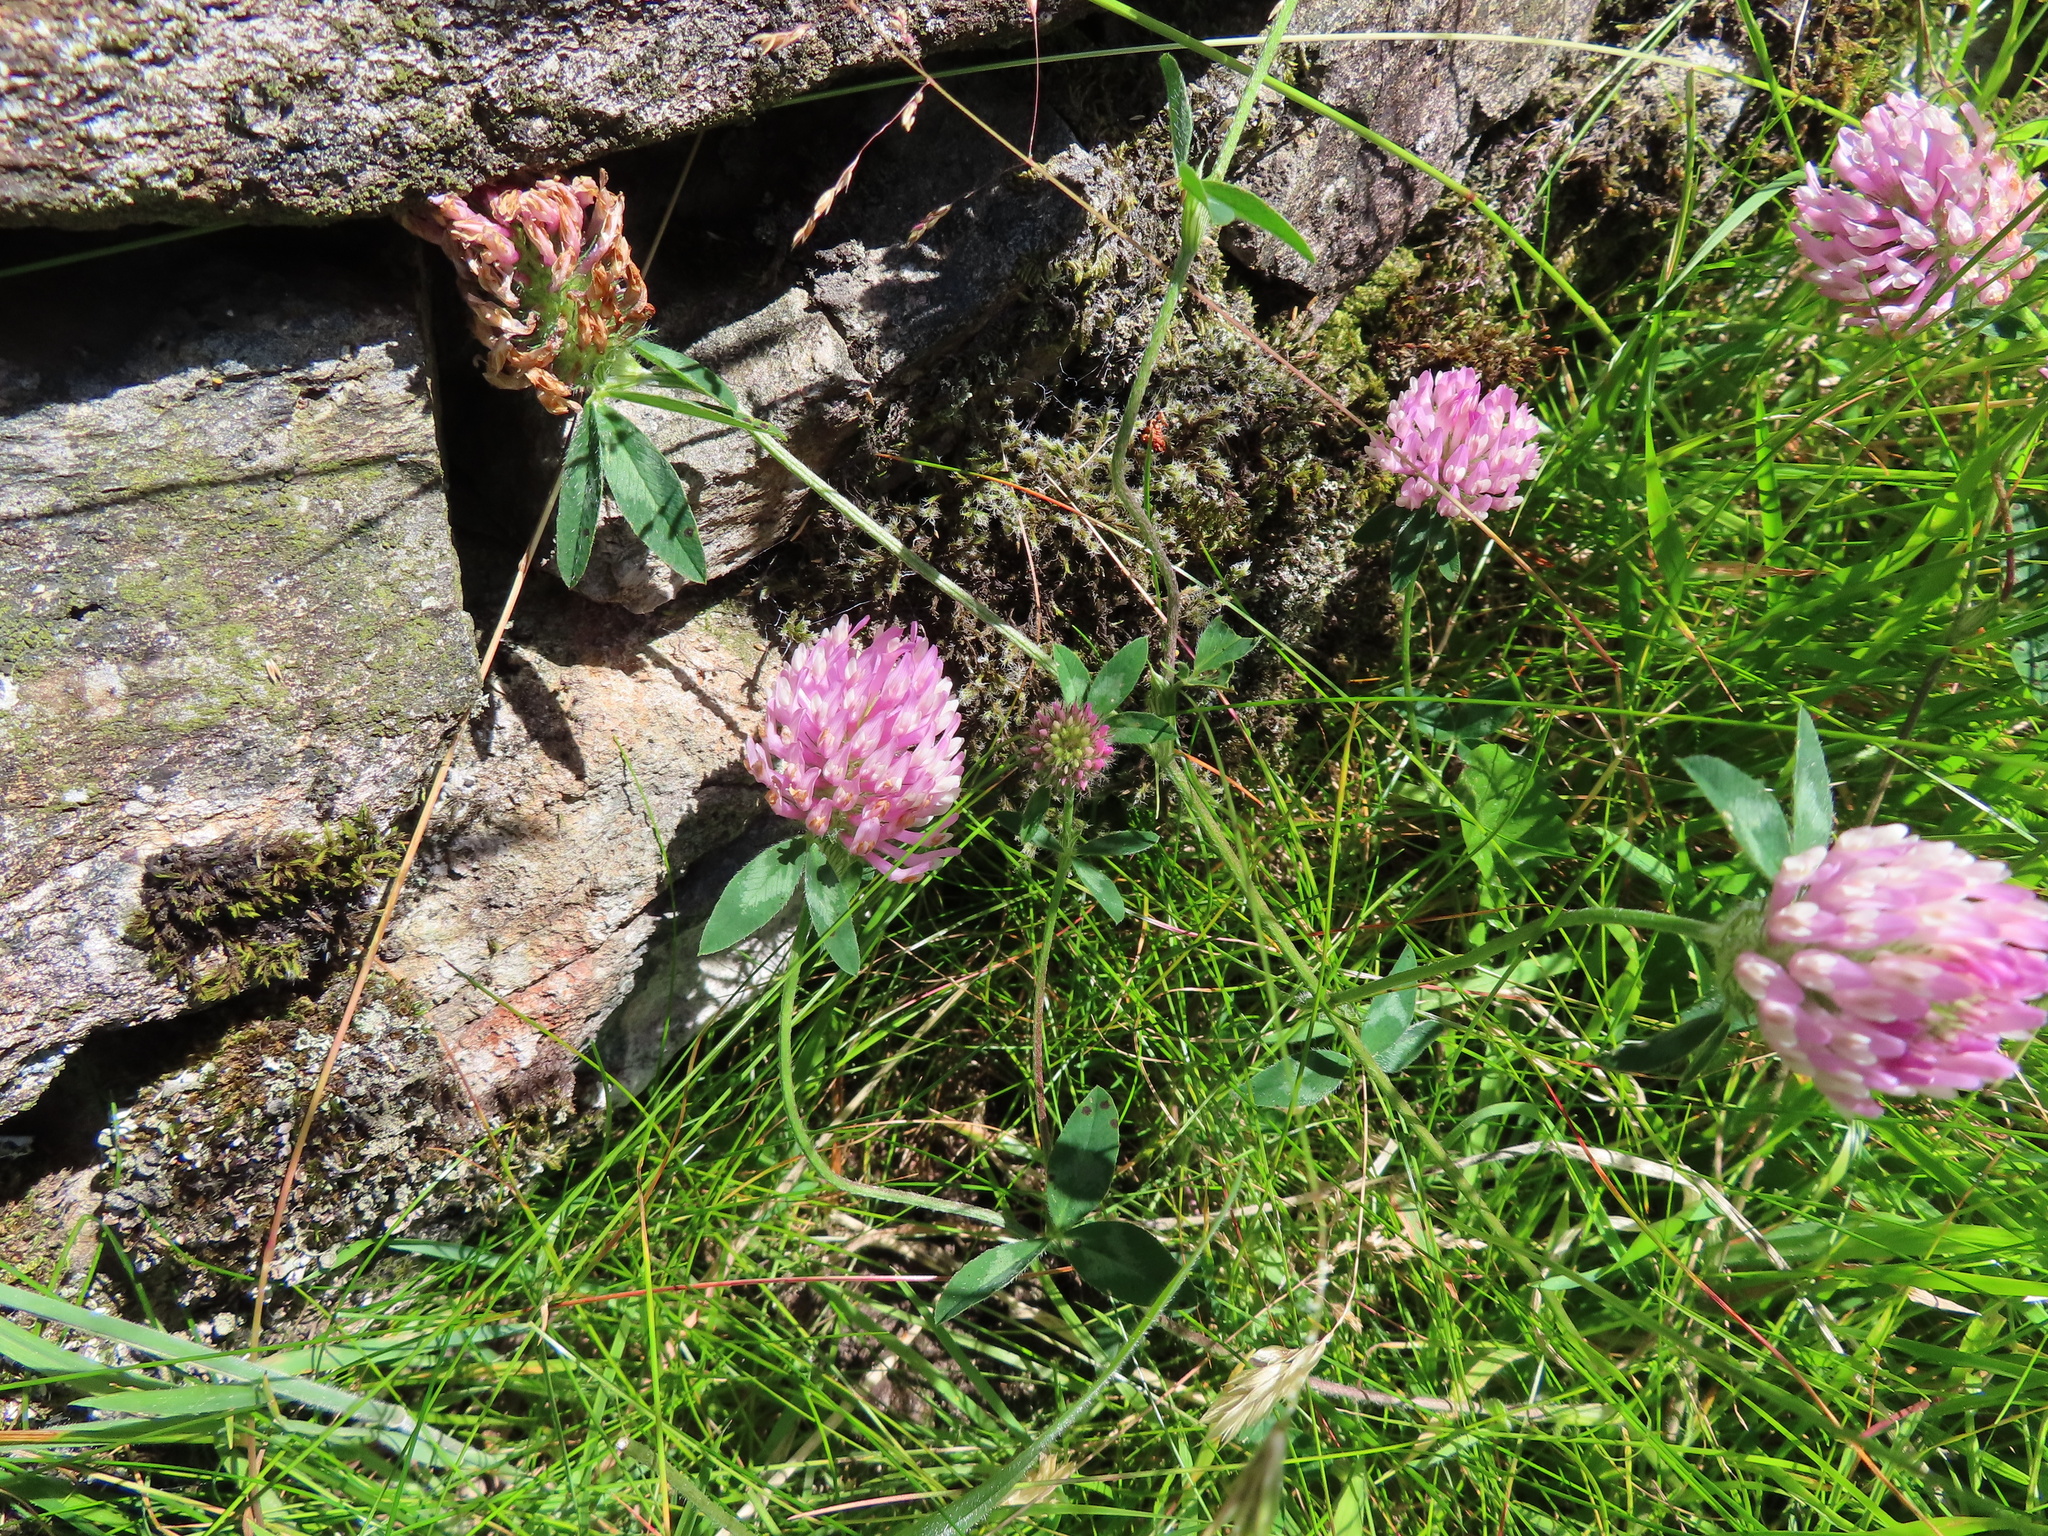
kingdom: Plantae
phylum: Tracheophyta
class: Magnoliopsida
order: Fabales
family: Fabaceae
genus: Trifolium
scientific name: Trifolium pratense
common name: Red clover
